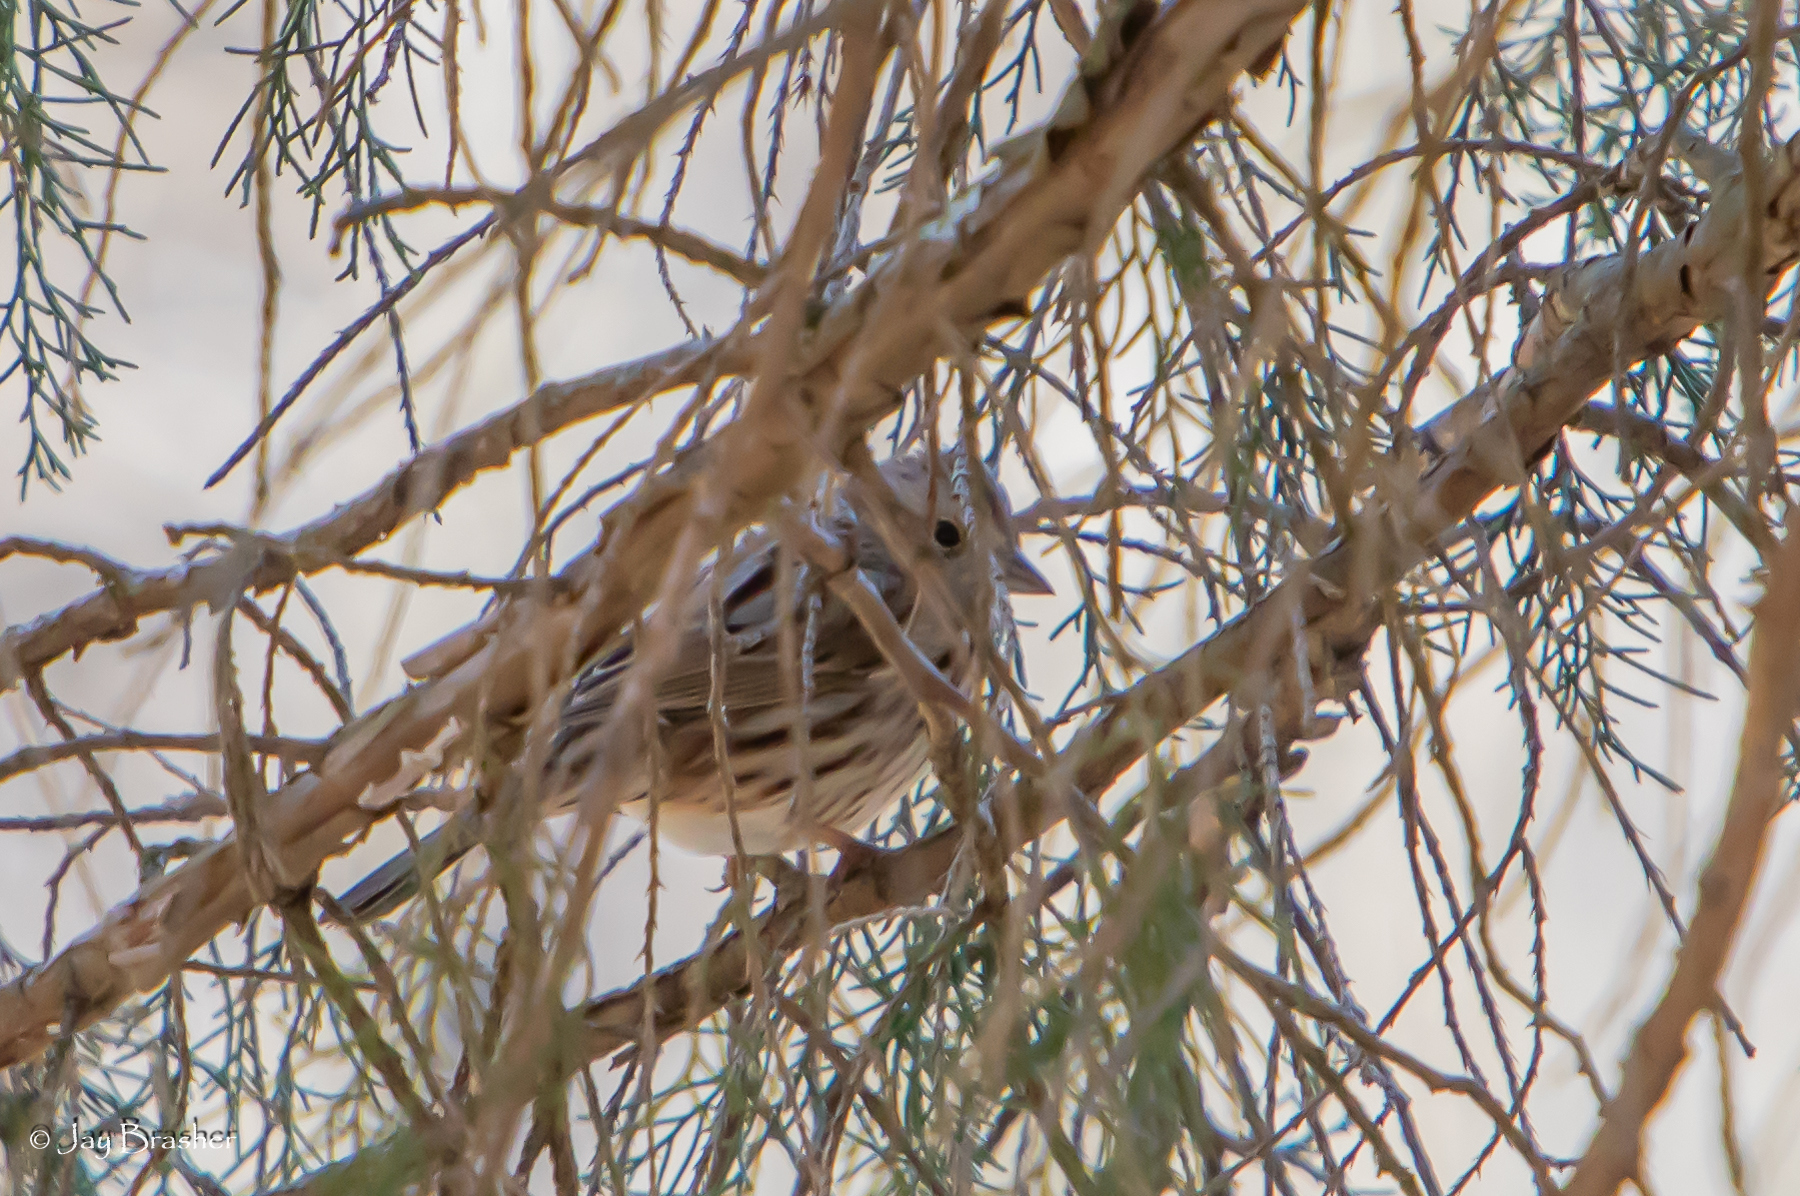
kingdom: Animalia
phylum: Chordata
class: Aves
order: Passeriformes
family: Passerellidae
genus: Melospiza
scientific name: Melospiza melodia
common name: Song sparrow
